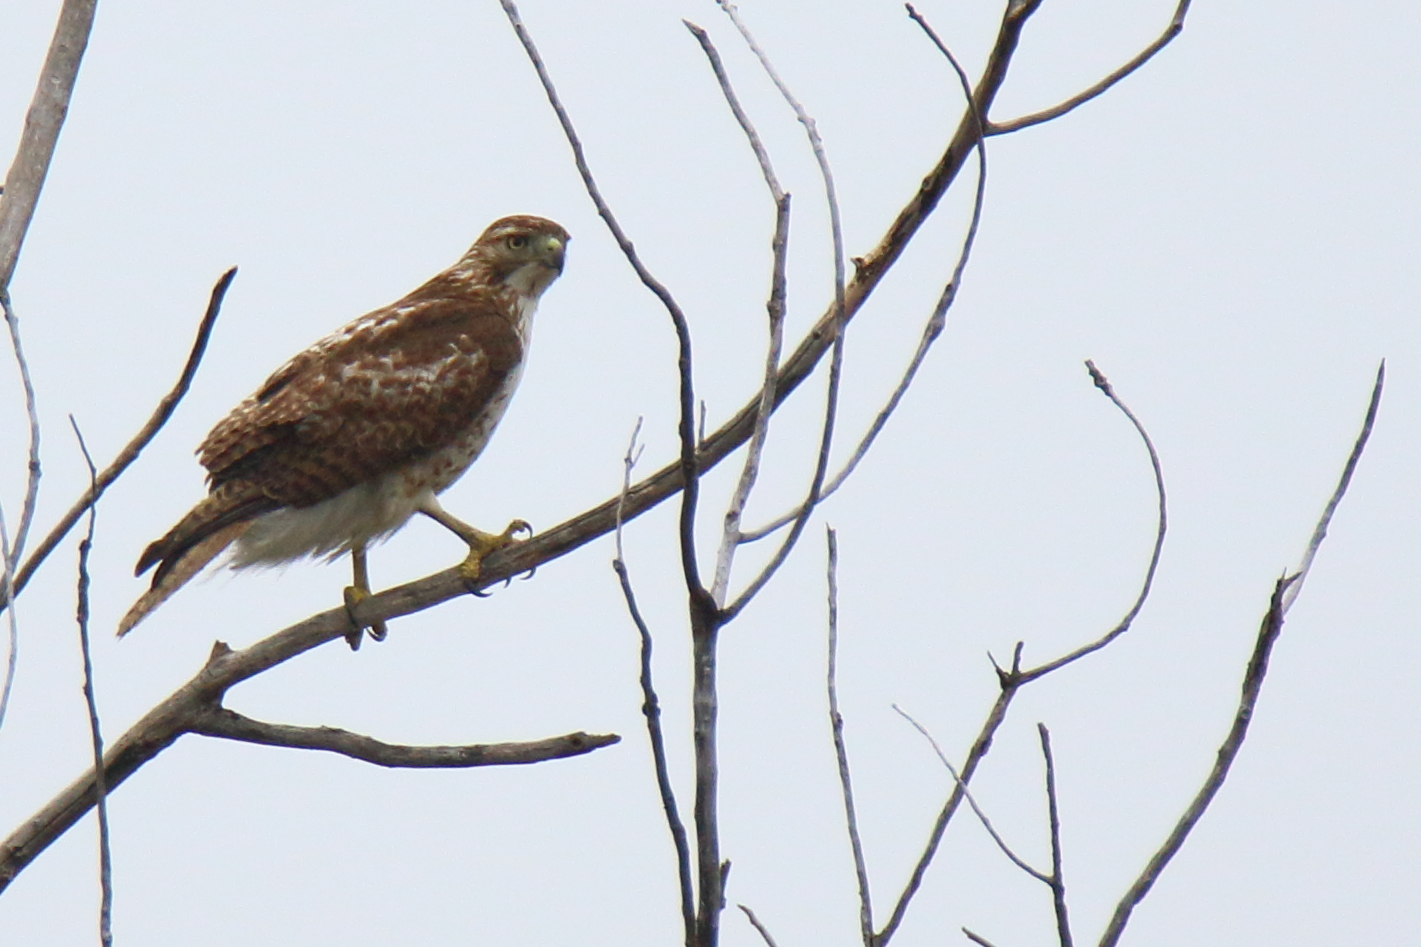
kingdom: Animalia
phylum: Chordata
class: Aves
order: Accipitriformes
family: Accipitridae
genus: Buteo
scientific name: Buteo jamaicensis
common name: Red-tailed hawk
